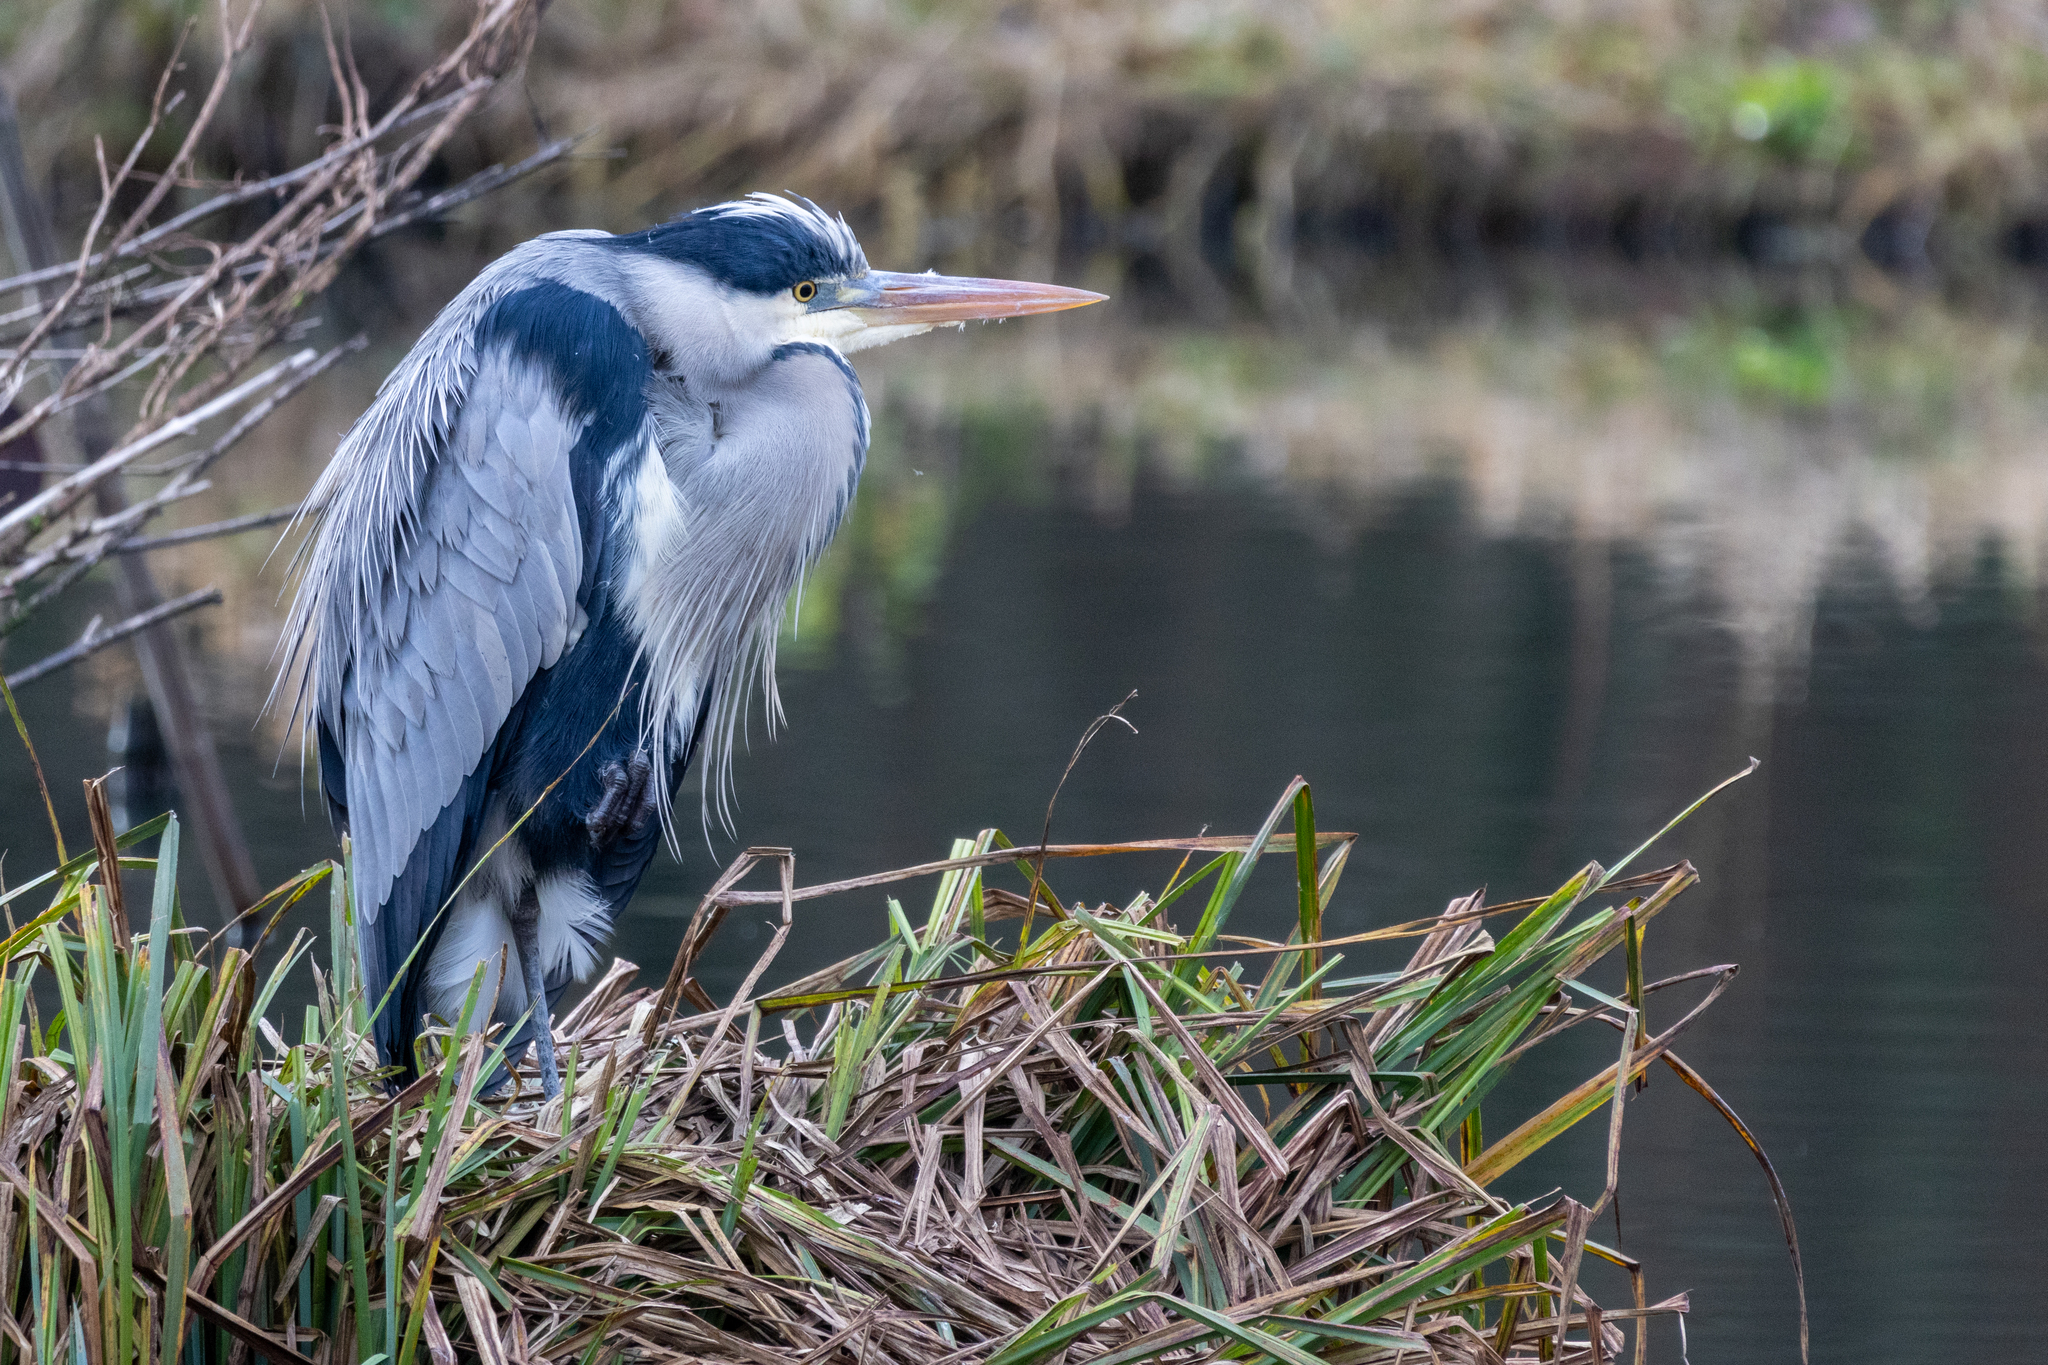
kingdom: Animalia
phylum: Chordata
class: Aves
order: Pelecaniformes
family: Ardeidae
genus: Ardea
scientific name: Ardea cinerea
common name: Grey heron
